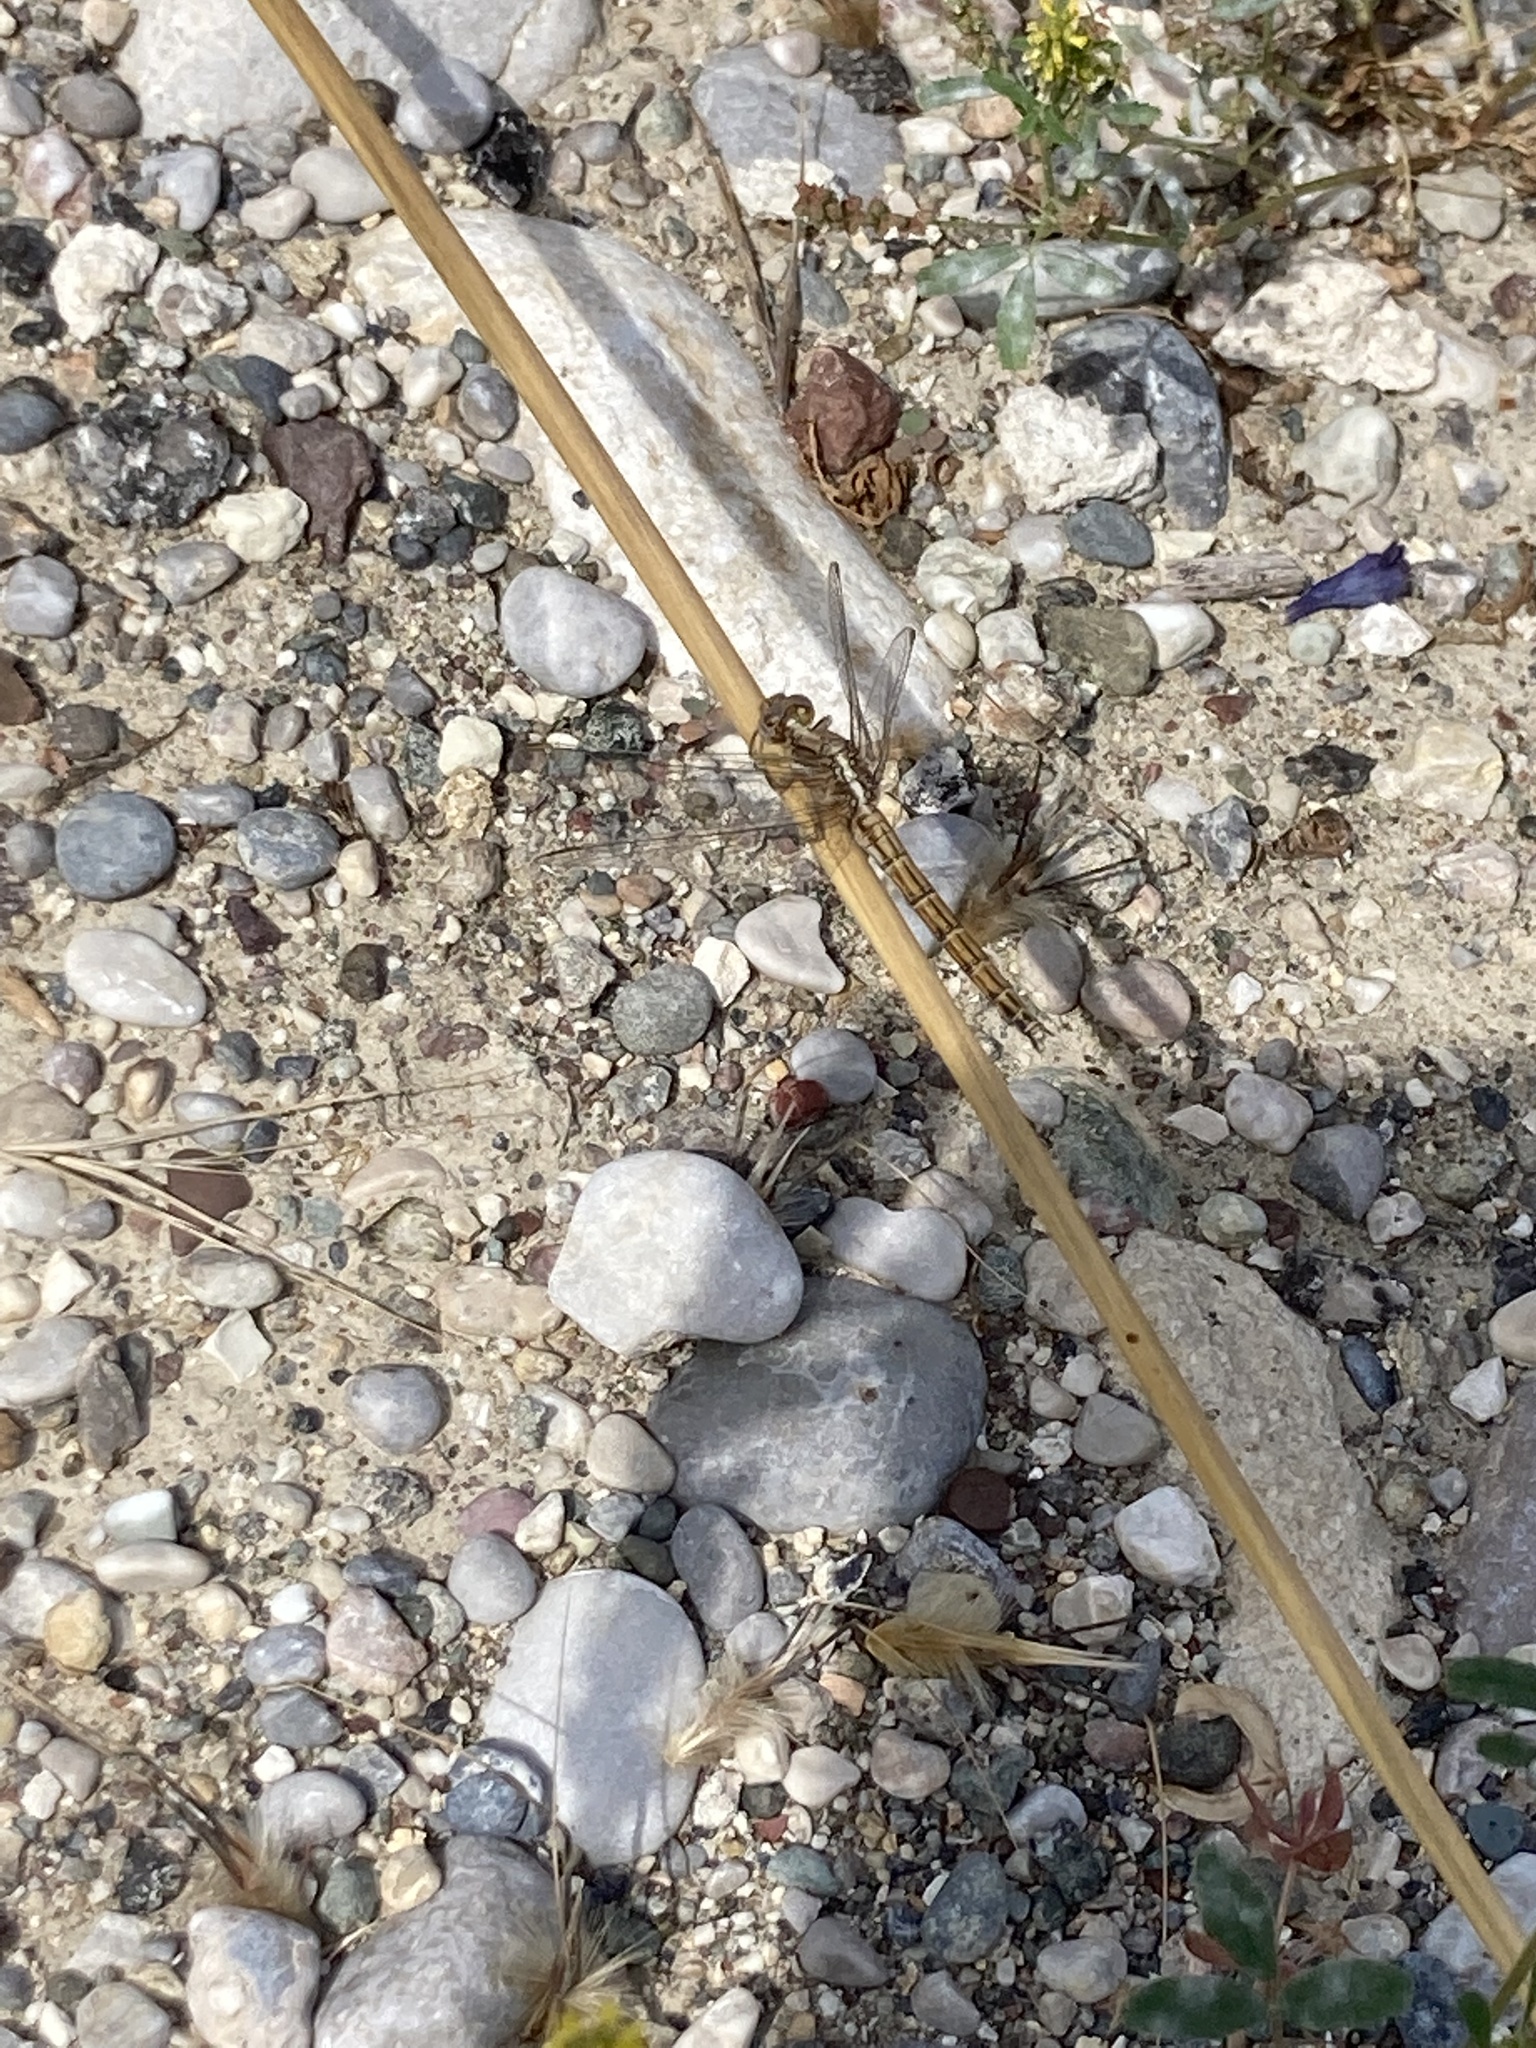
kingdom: Animalia
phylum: Arthropoda
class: Insecta
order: Odonata
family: Libellulidae
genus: Orthetrum
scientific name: Orthetrum taeniolatum
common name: Small skimmer
